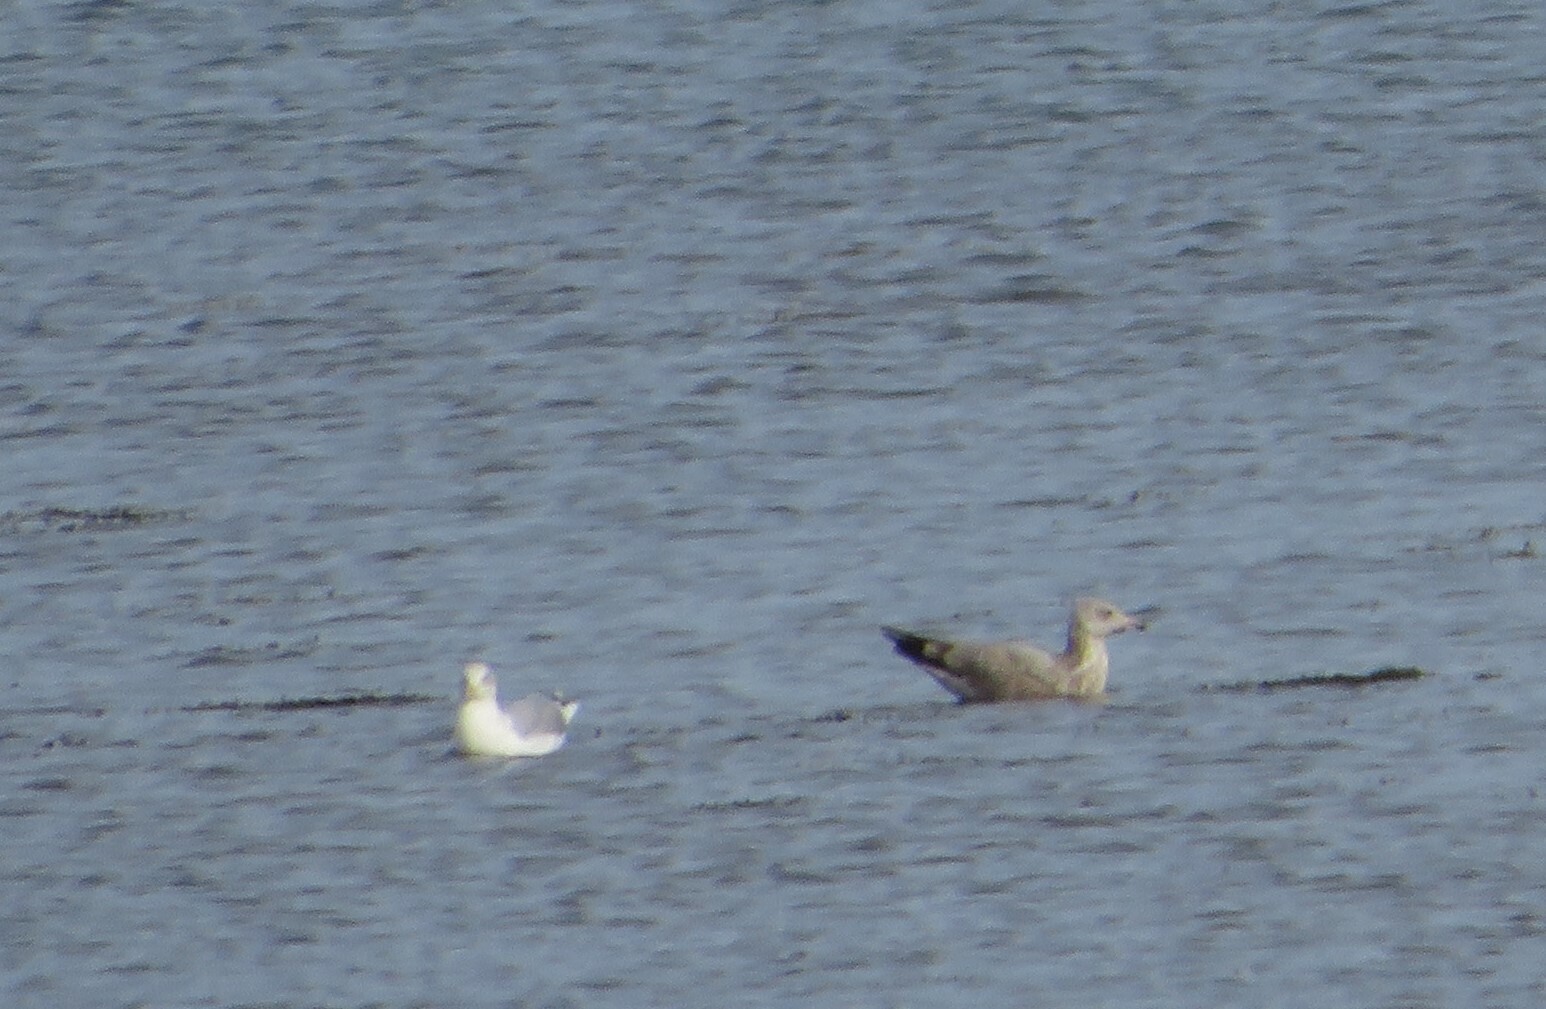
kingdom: Animalia
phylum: Chordata
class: Aves
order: Charadriiformes
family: Laridae
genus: Larus
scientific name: Larus argentatus
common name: Herring gull
